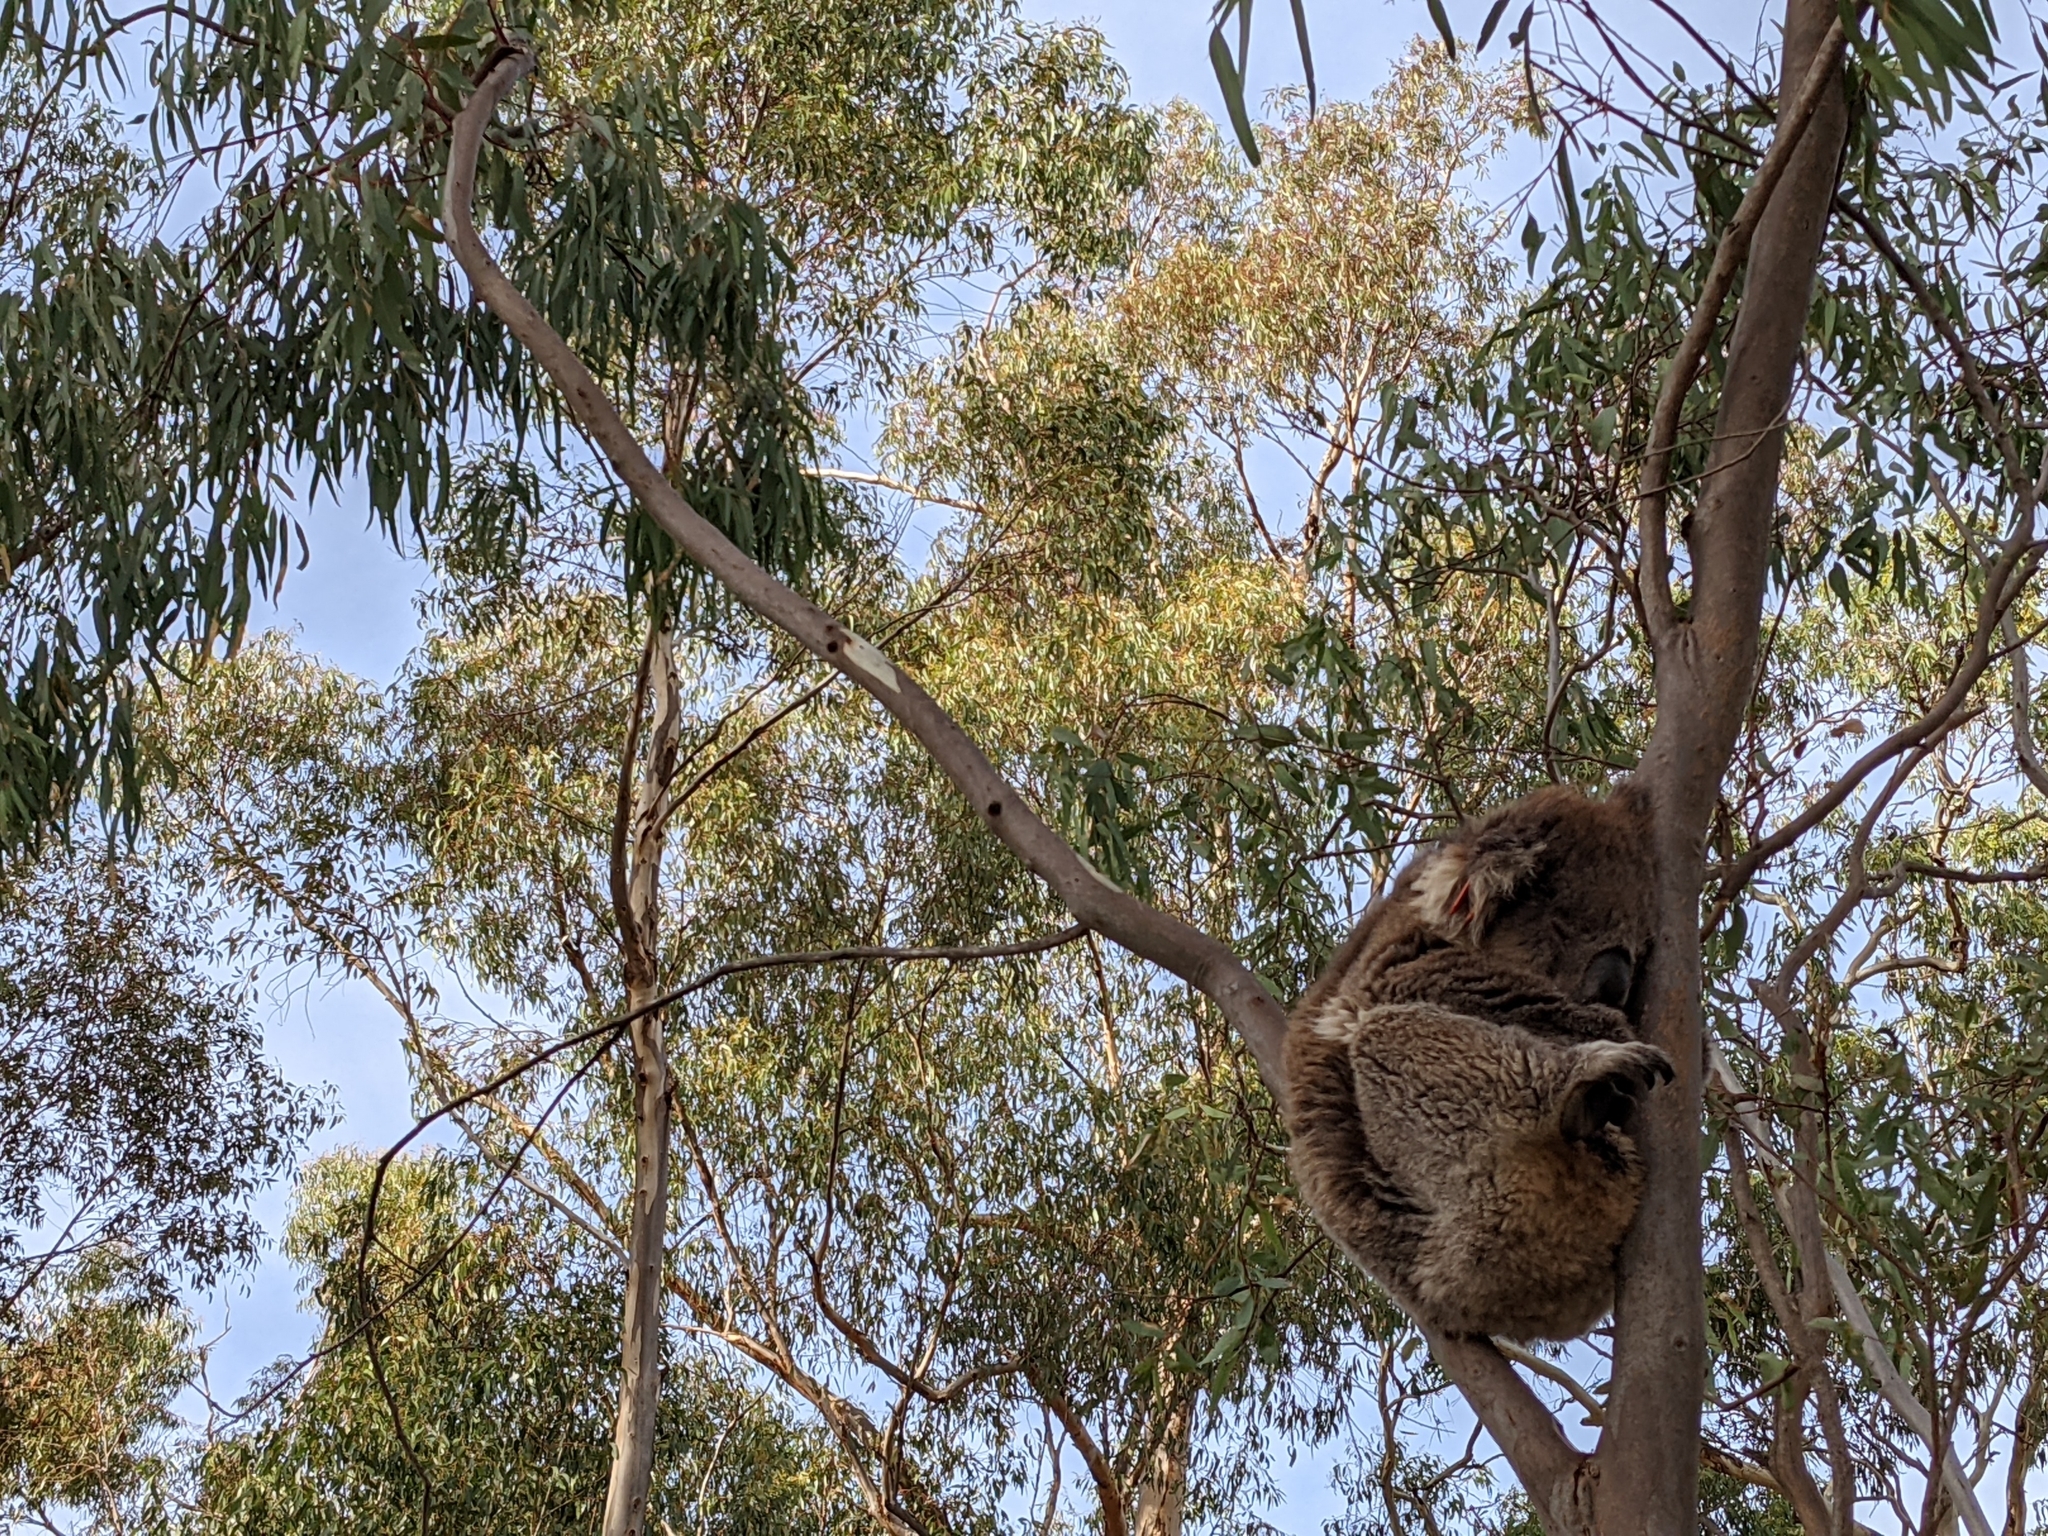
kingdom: Animalia
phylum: Chordata
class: Mammalia
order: Diprotodontia
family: Phascolarctidae
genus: Phascolarctos
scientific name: Phascolarctos cinereus
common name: Koala
